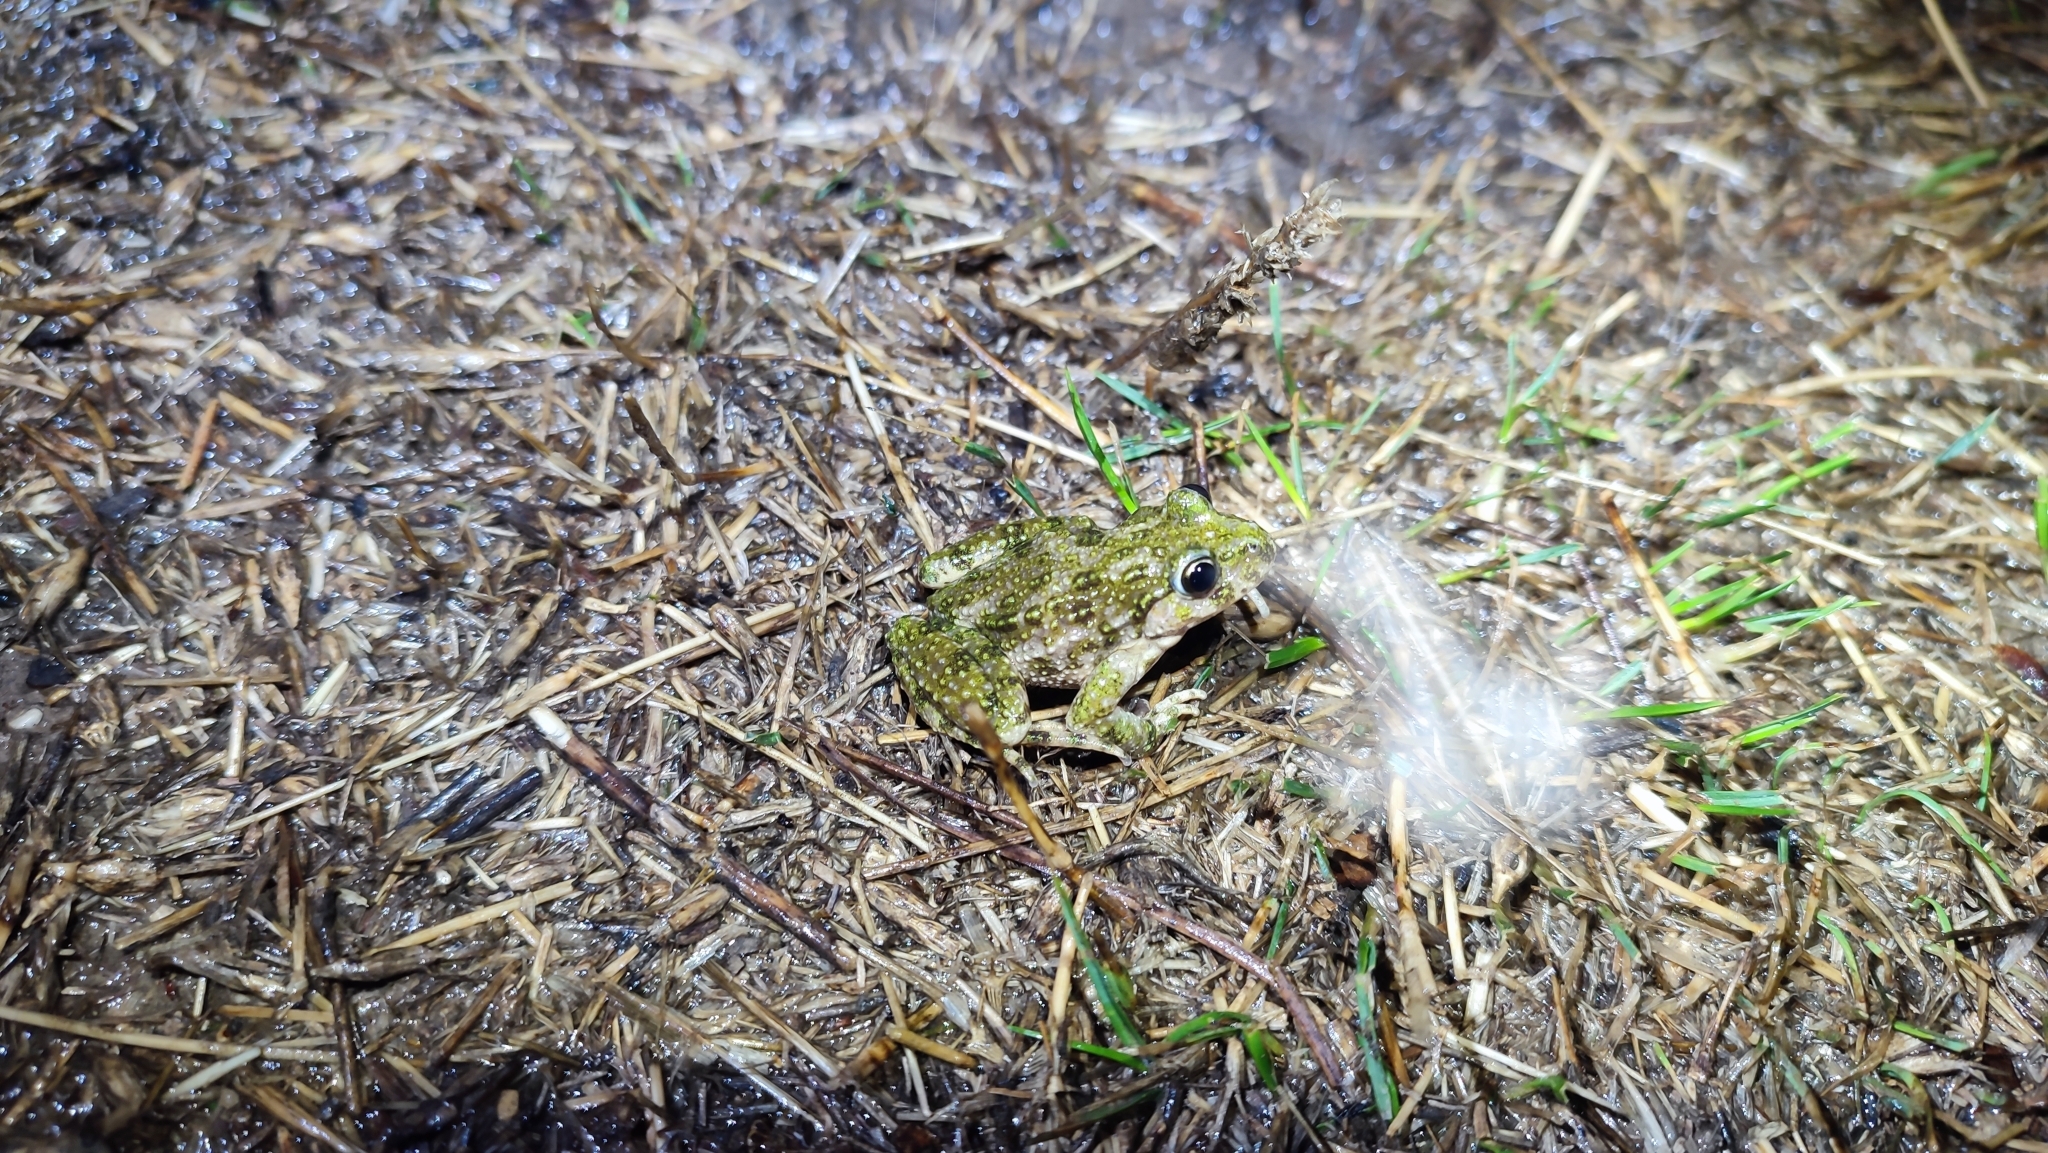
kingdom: Animalia
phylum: Chordata
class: Amphibia
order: Anura
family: Pelodytidae
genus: Pelodytes
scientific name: Pelodytes punctatus
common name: Parsley frog
